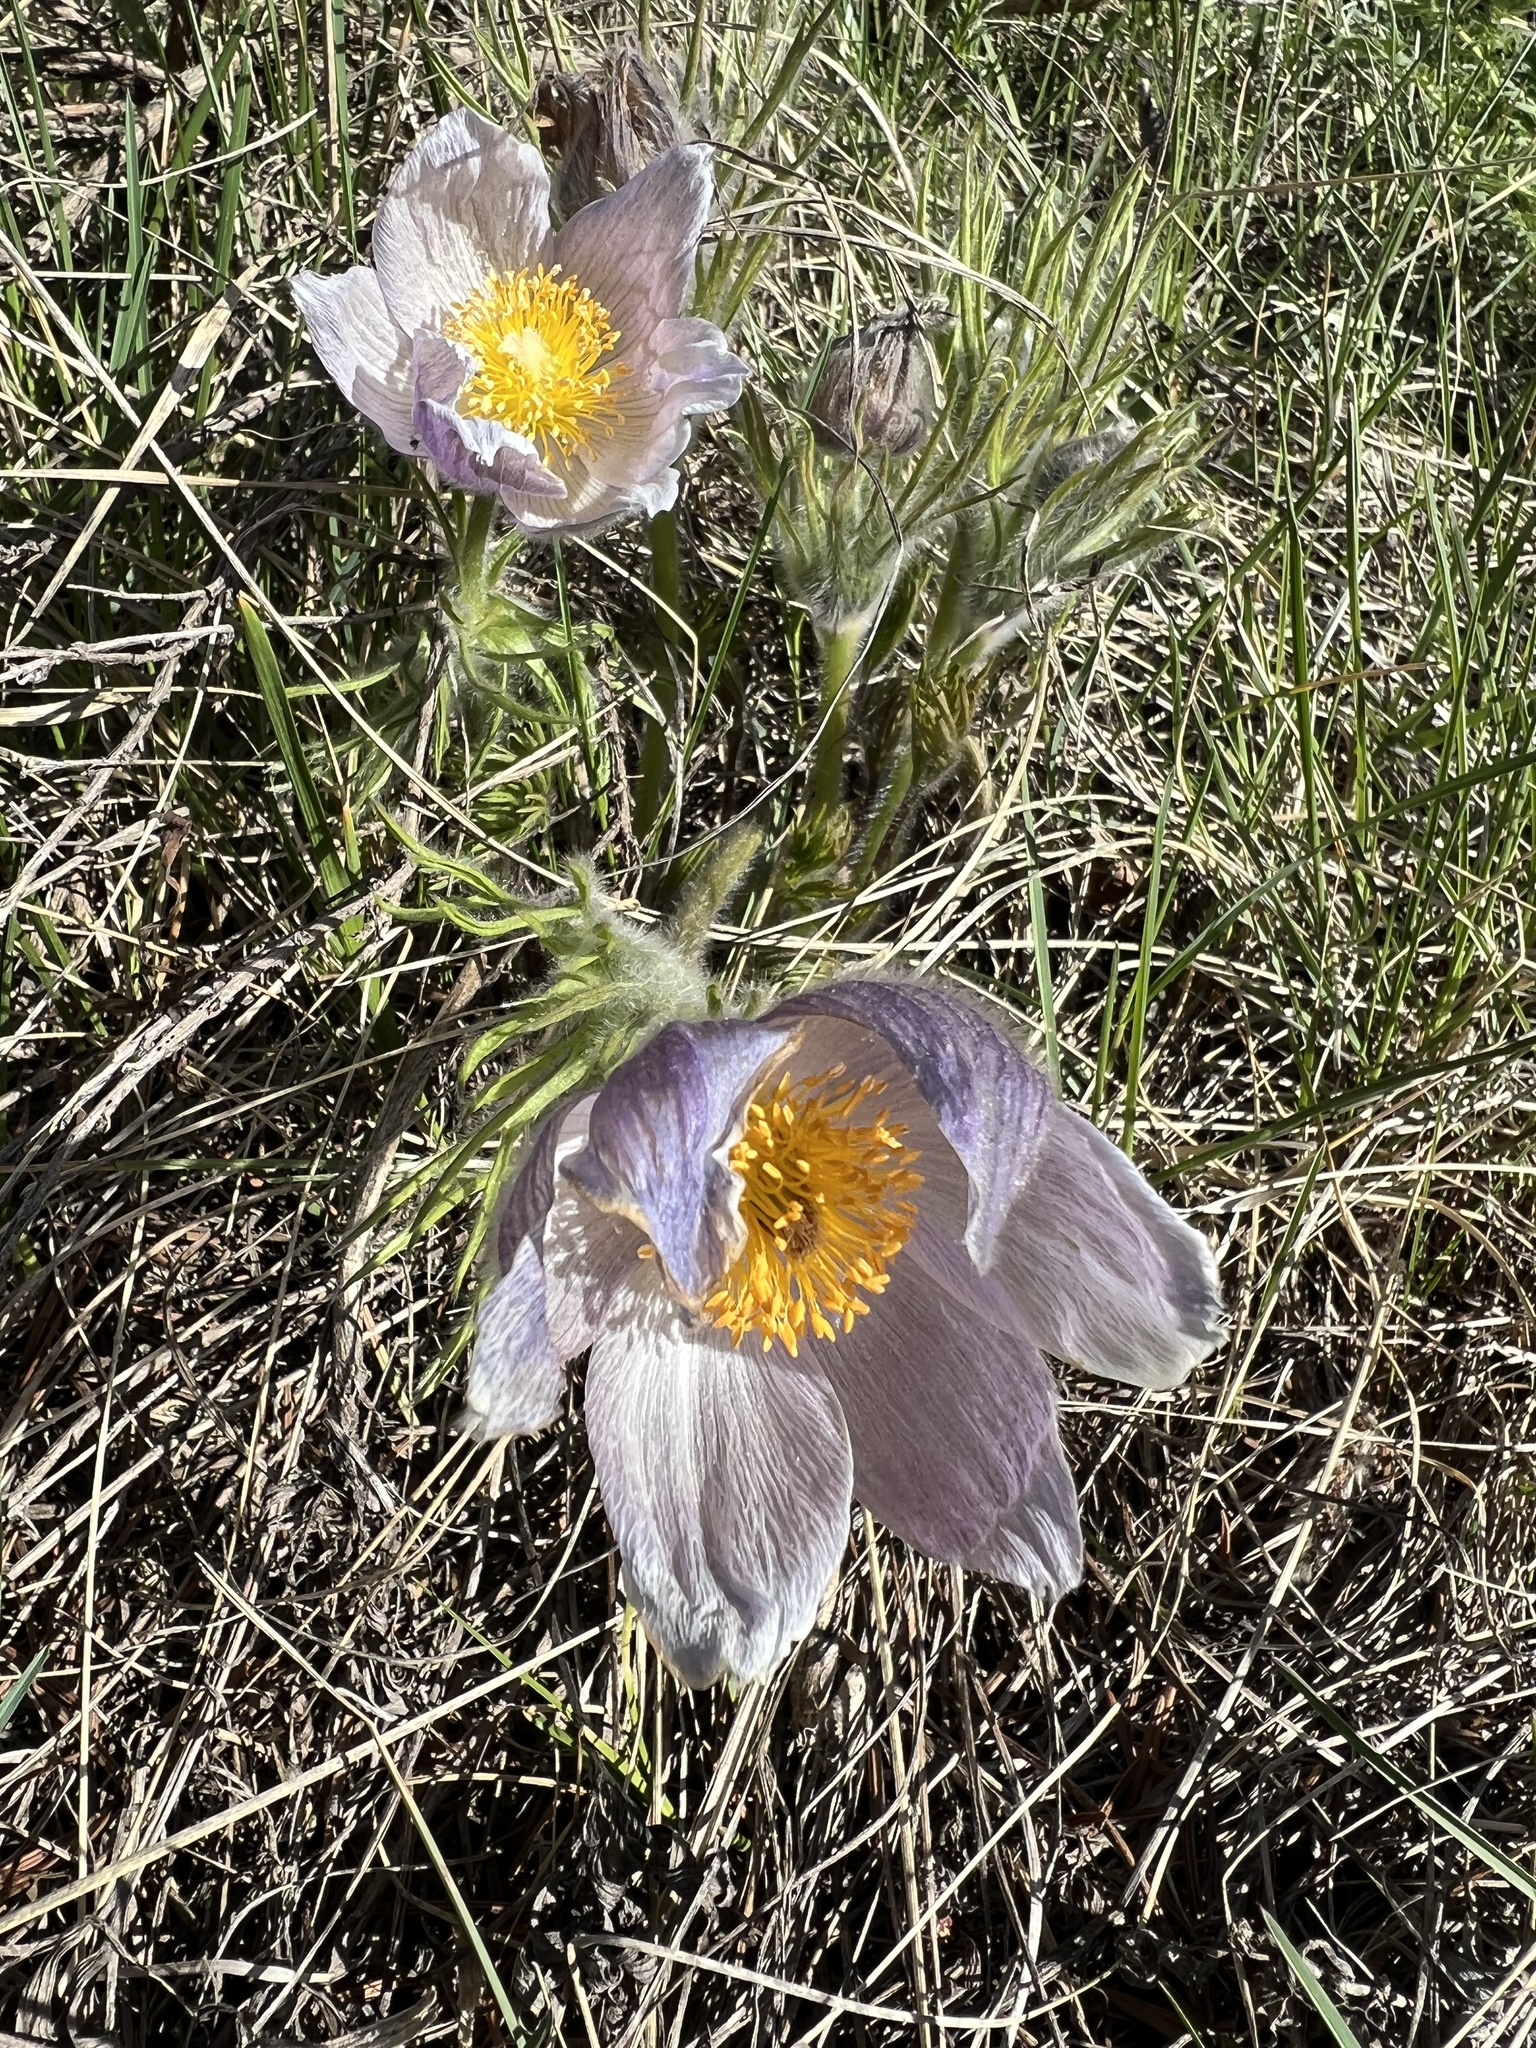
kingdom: Plantae
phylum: Tracheophyta
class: Magnoliopsida
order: Ranunculales
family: Ranunculaceae
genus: Pulsatilla
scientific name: Pulsatilla nuttalliana
